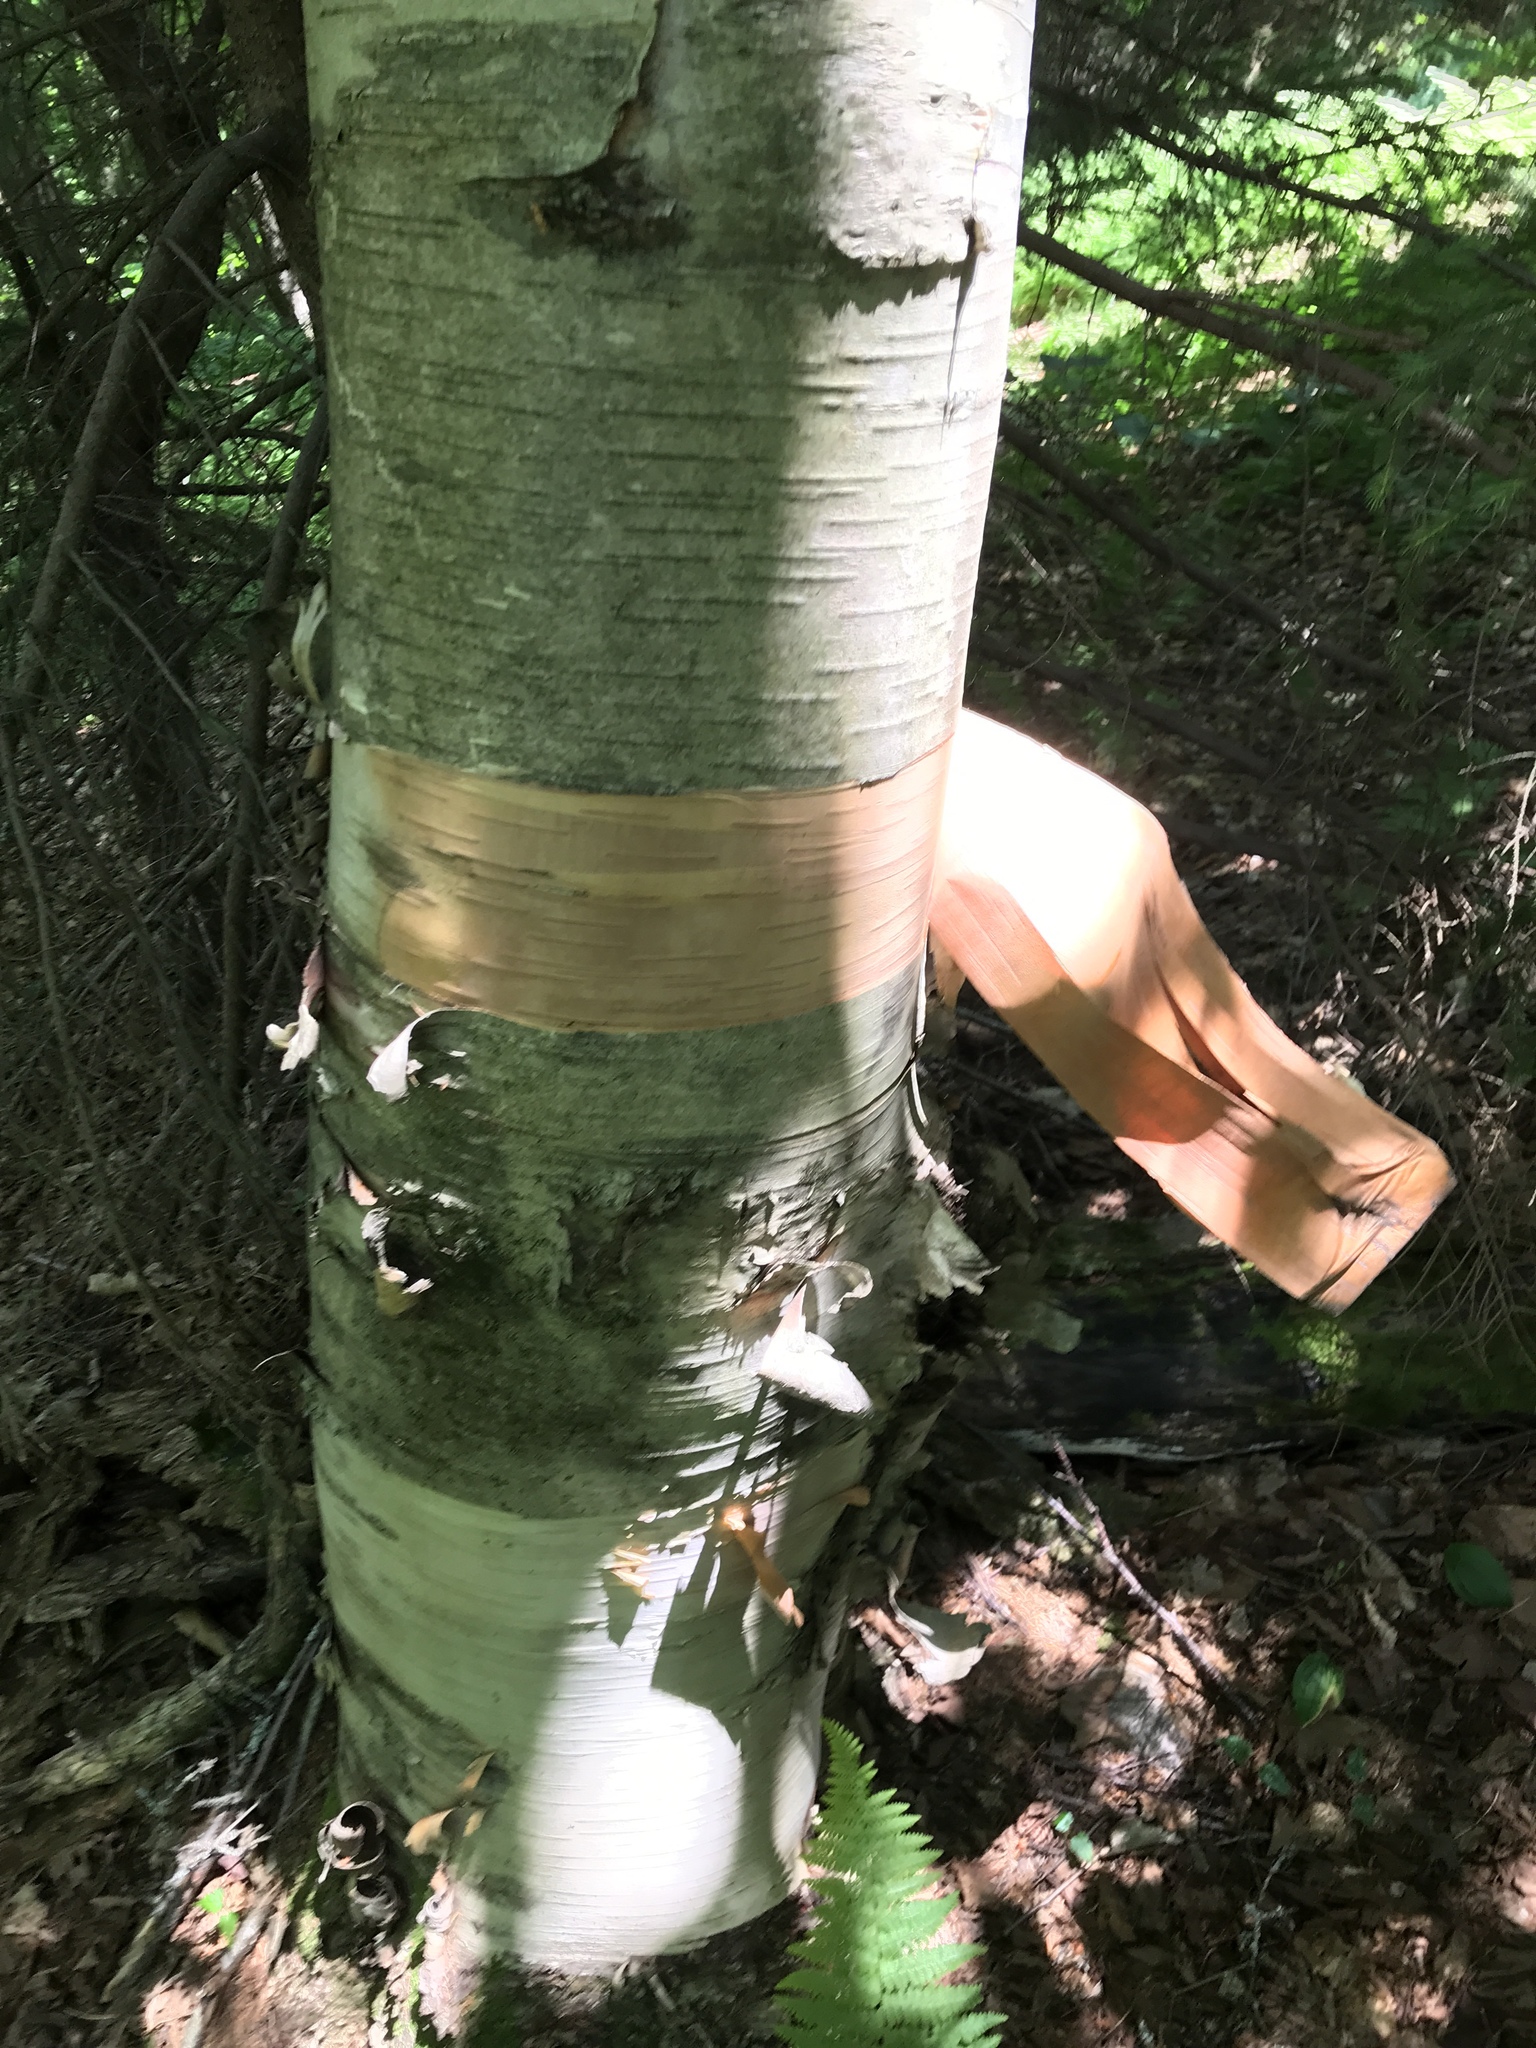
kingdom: Plantae
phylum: Tracheophyta
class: Magnoliopsida
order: Fagales
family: Betulaceae
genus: Betula
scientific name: Betula cordifolia
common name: Mountain white birch
